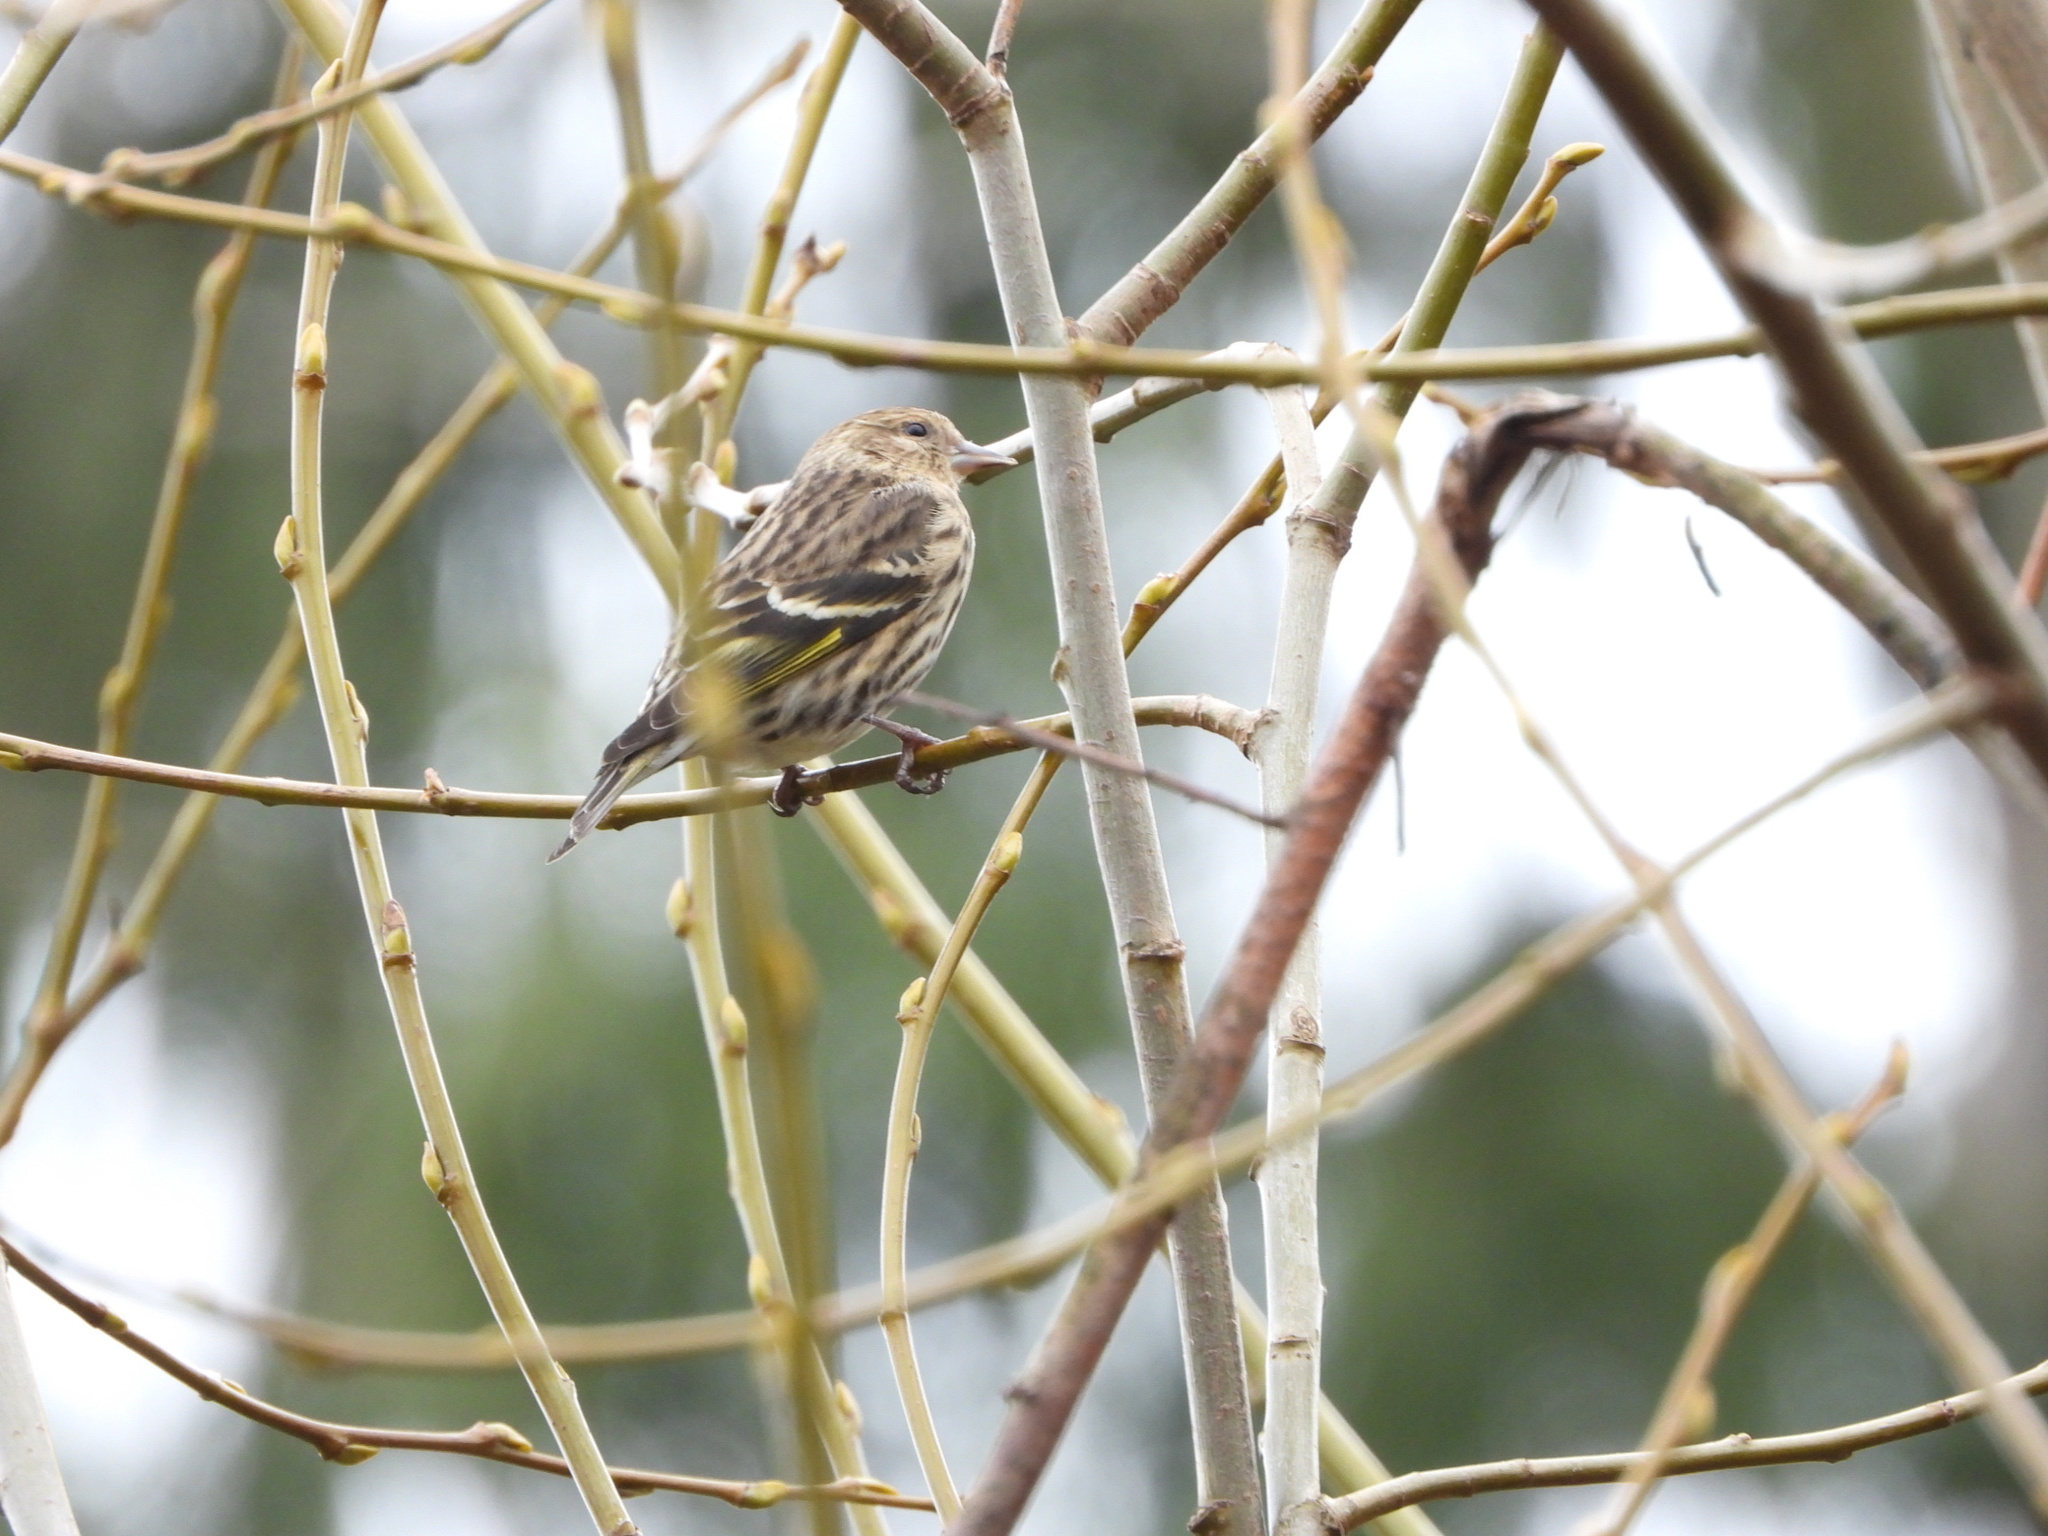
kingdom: Animalia
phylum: Chordata
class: Aves
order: Passeriformes
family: Fringillidae
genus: Spinus
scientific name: Spinus pinus
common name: Pine siskin
